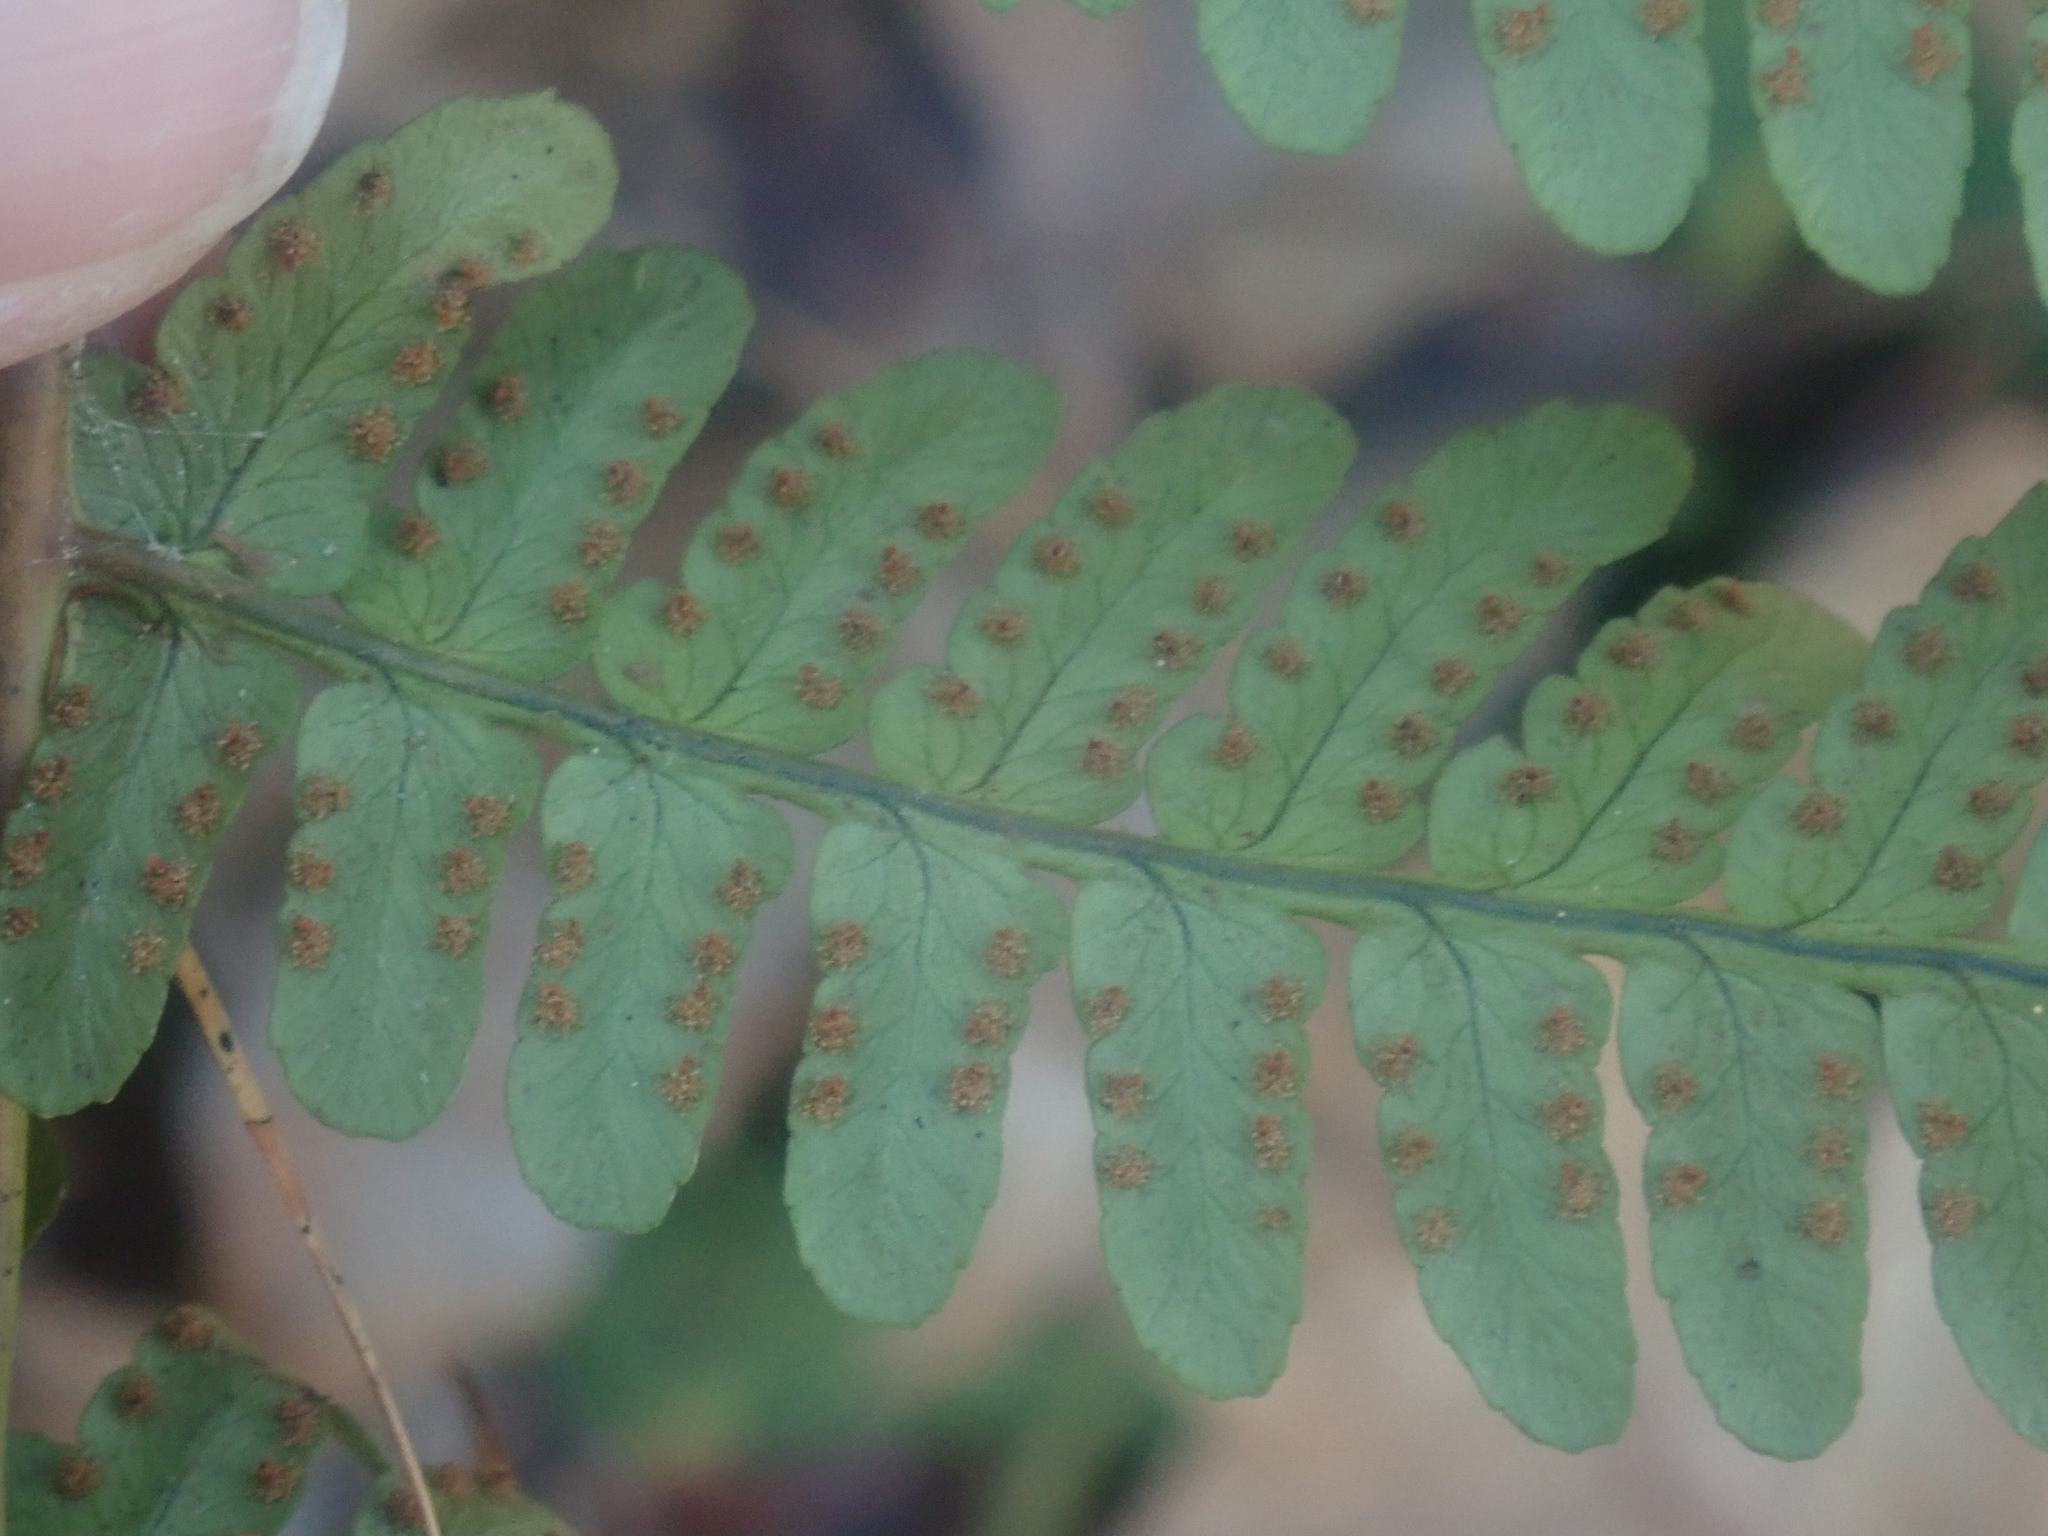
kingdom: Plantae
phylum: Tracheophyta
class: Polypodiopsida
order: Polypodiales
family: Dryopteridaceae
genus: Dryopteris
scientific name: Dryopteris marginalis
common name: Marginal wood fern
